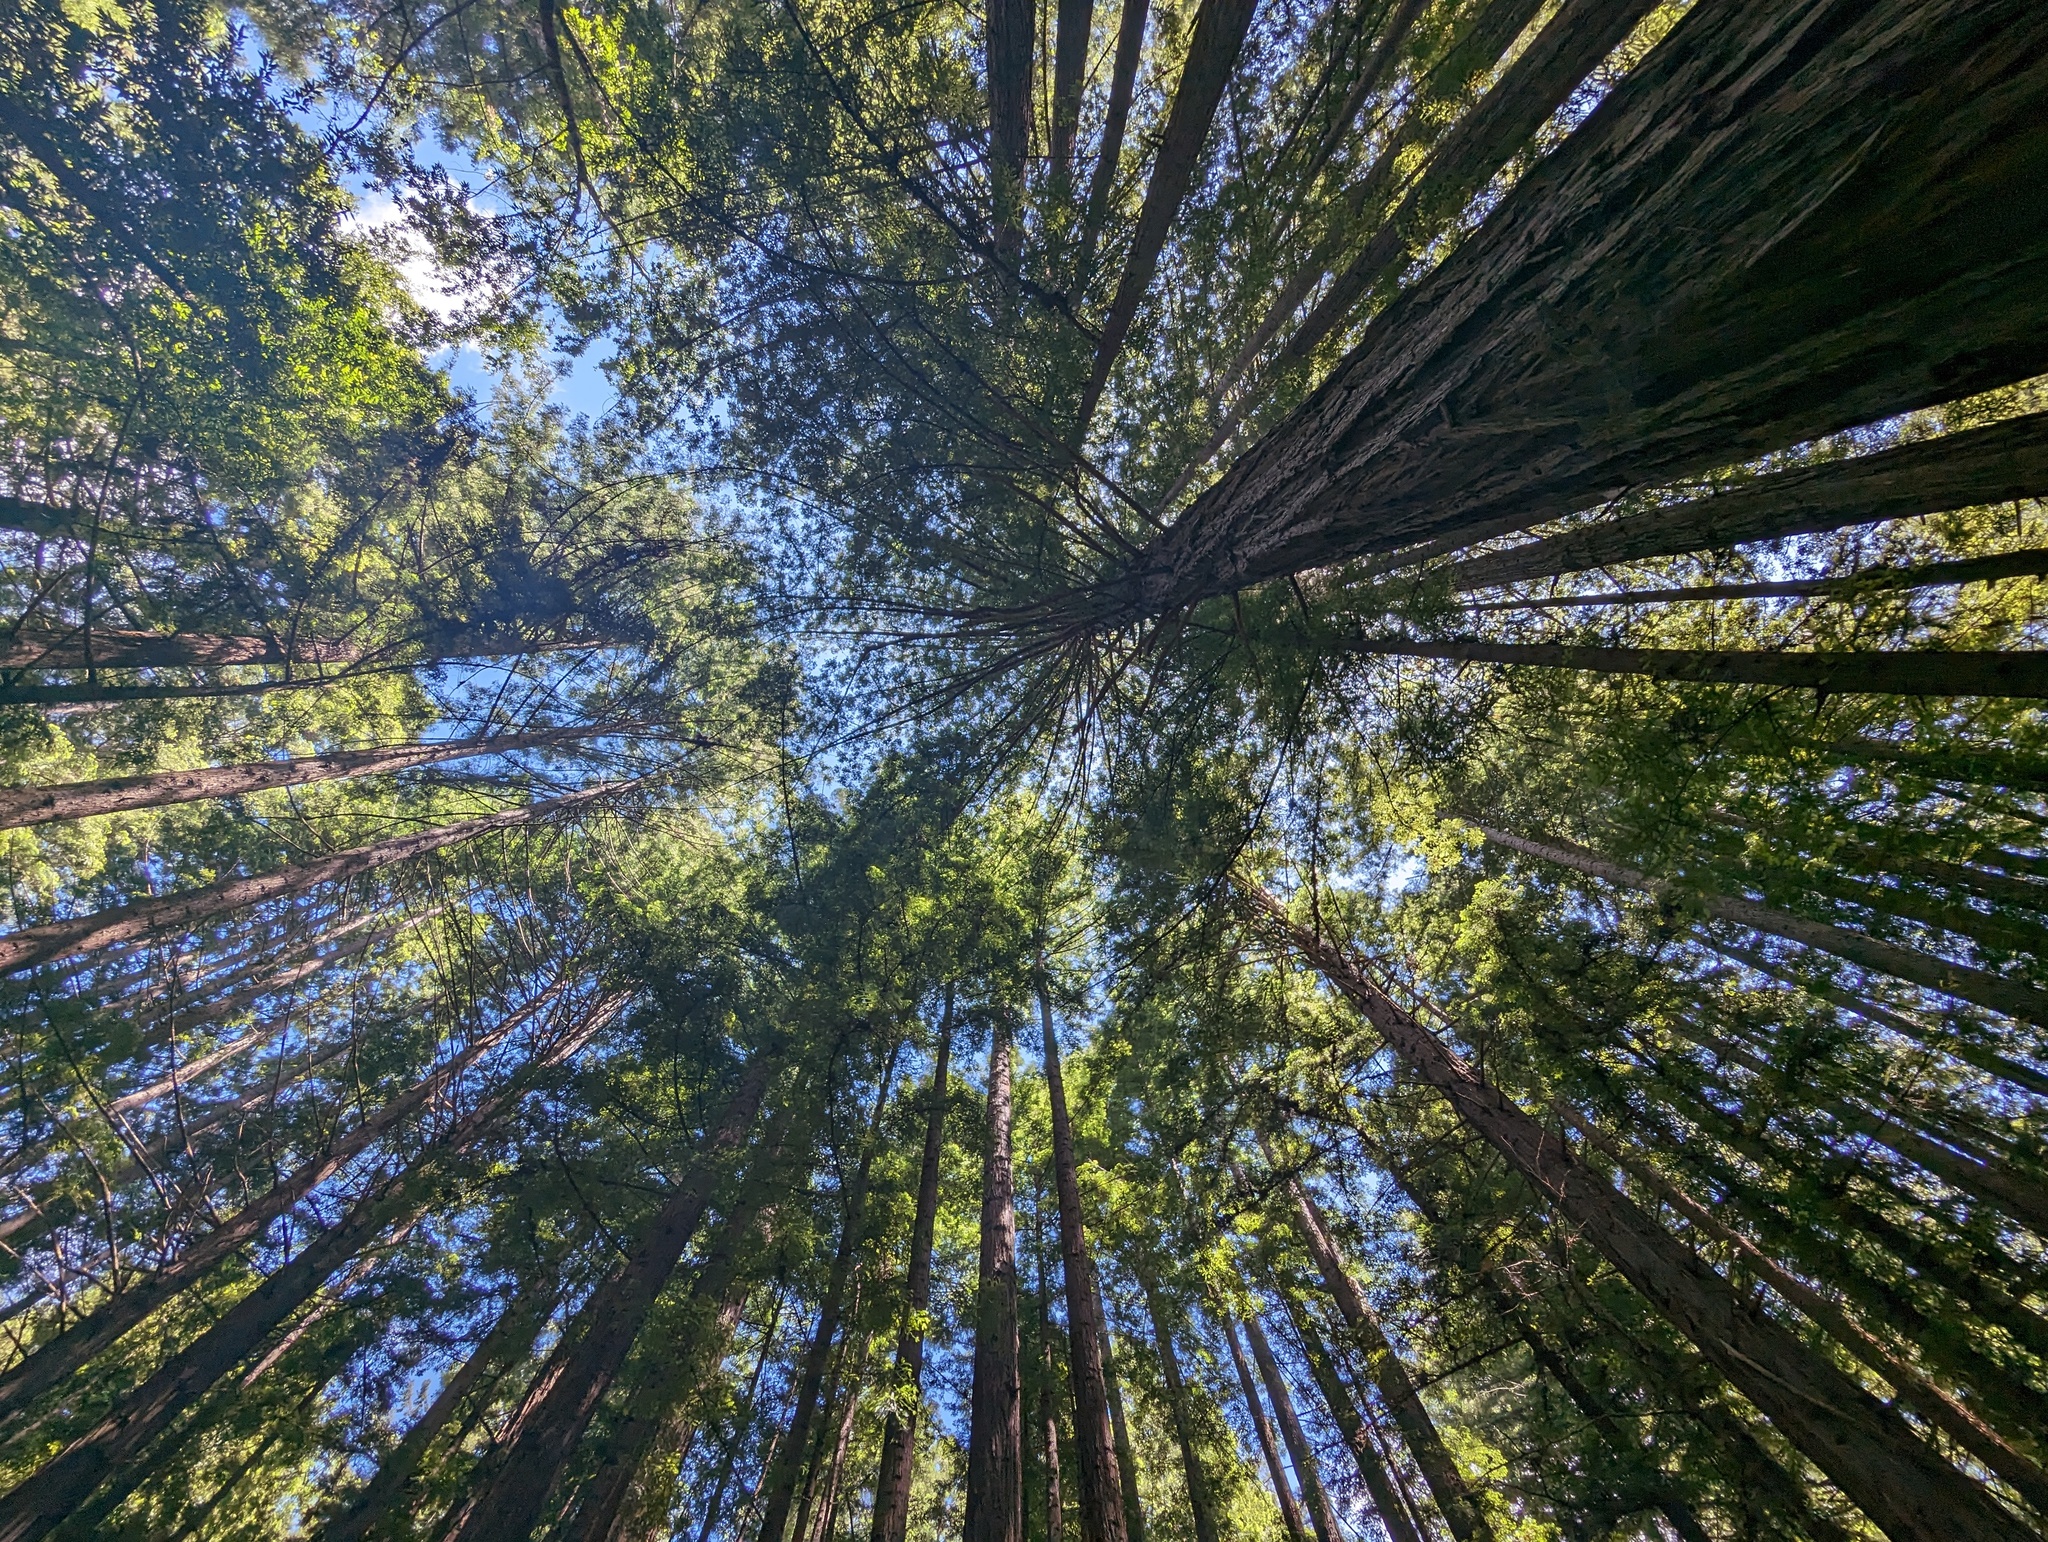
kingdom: Plantae
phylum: Tracheophyta
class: Pinopsida
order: Pinales
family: Cupressaceae
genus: Sequoia
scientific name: Sequoia sempervirens
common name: Coast redwood
